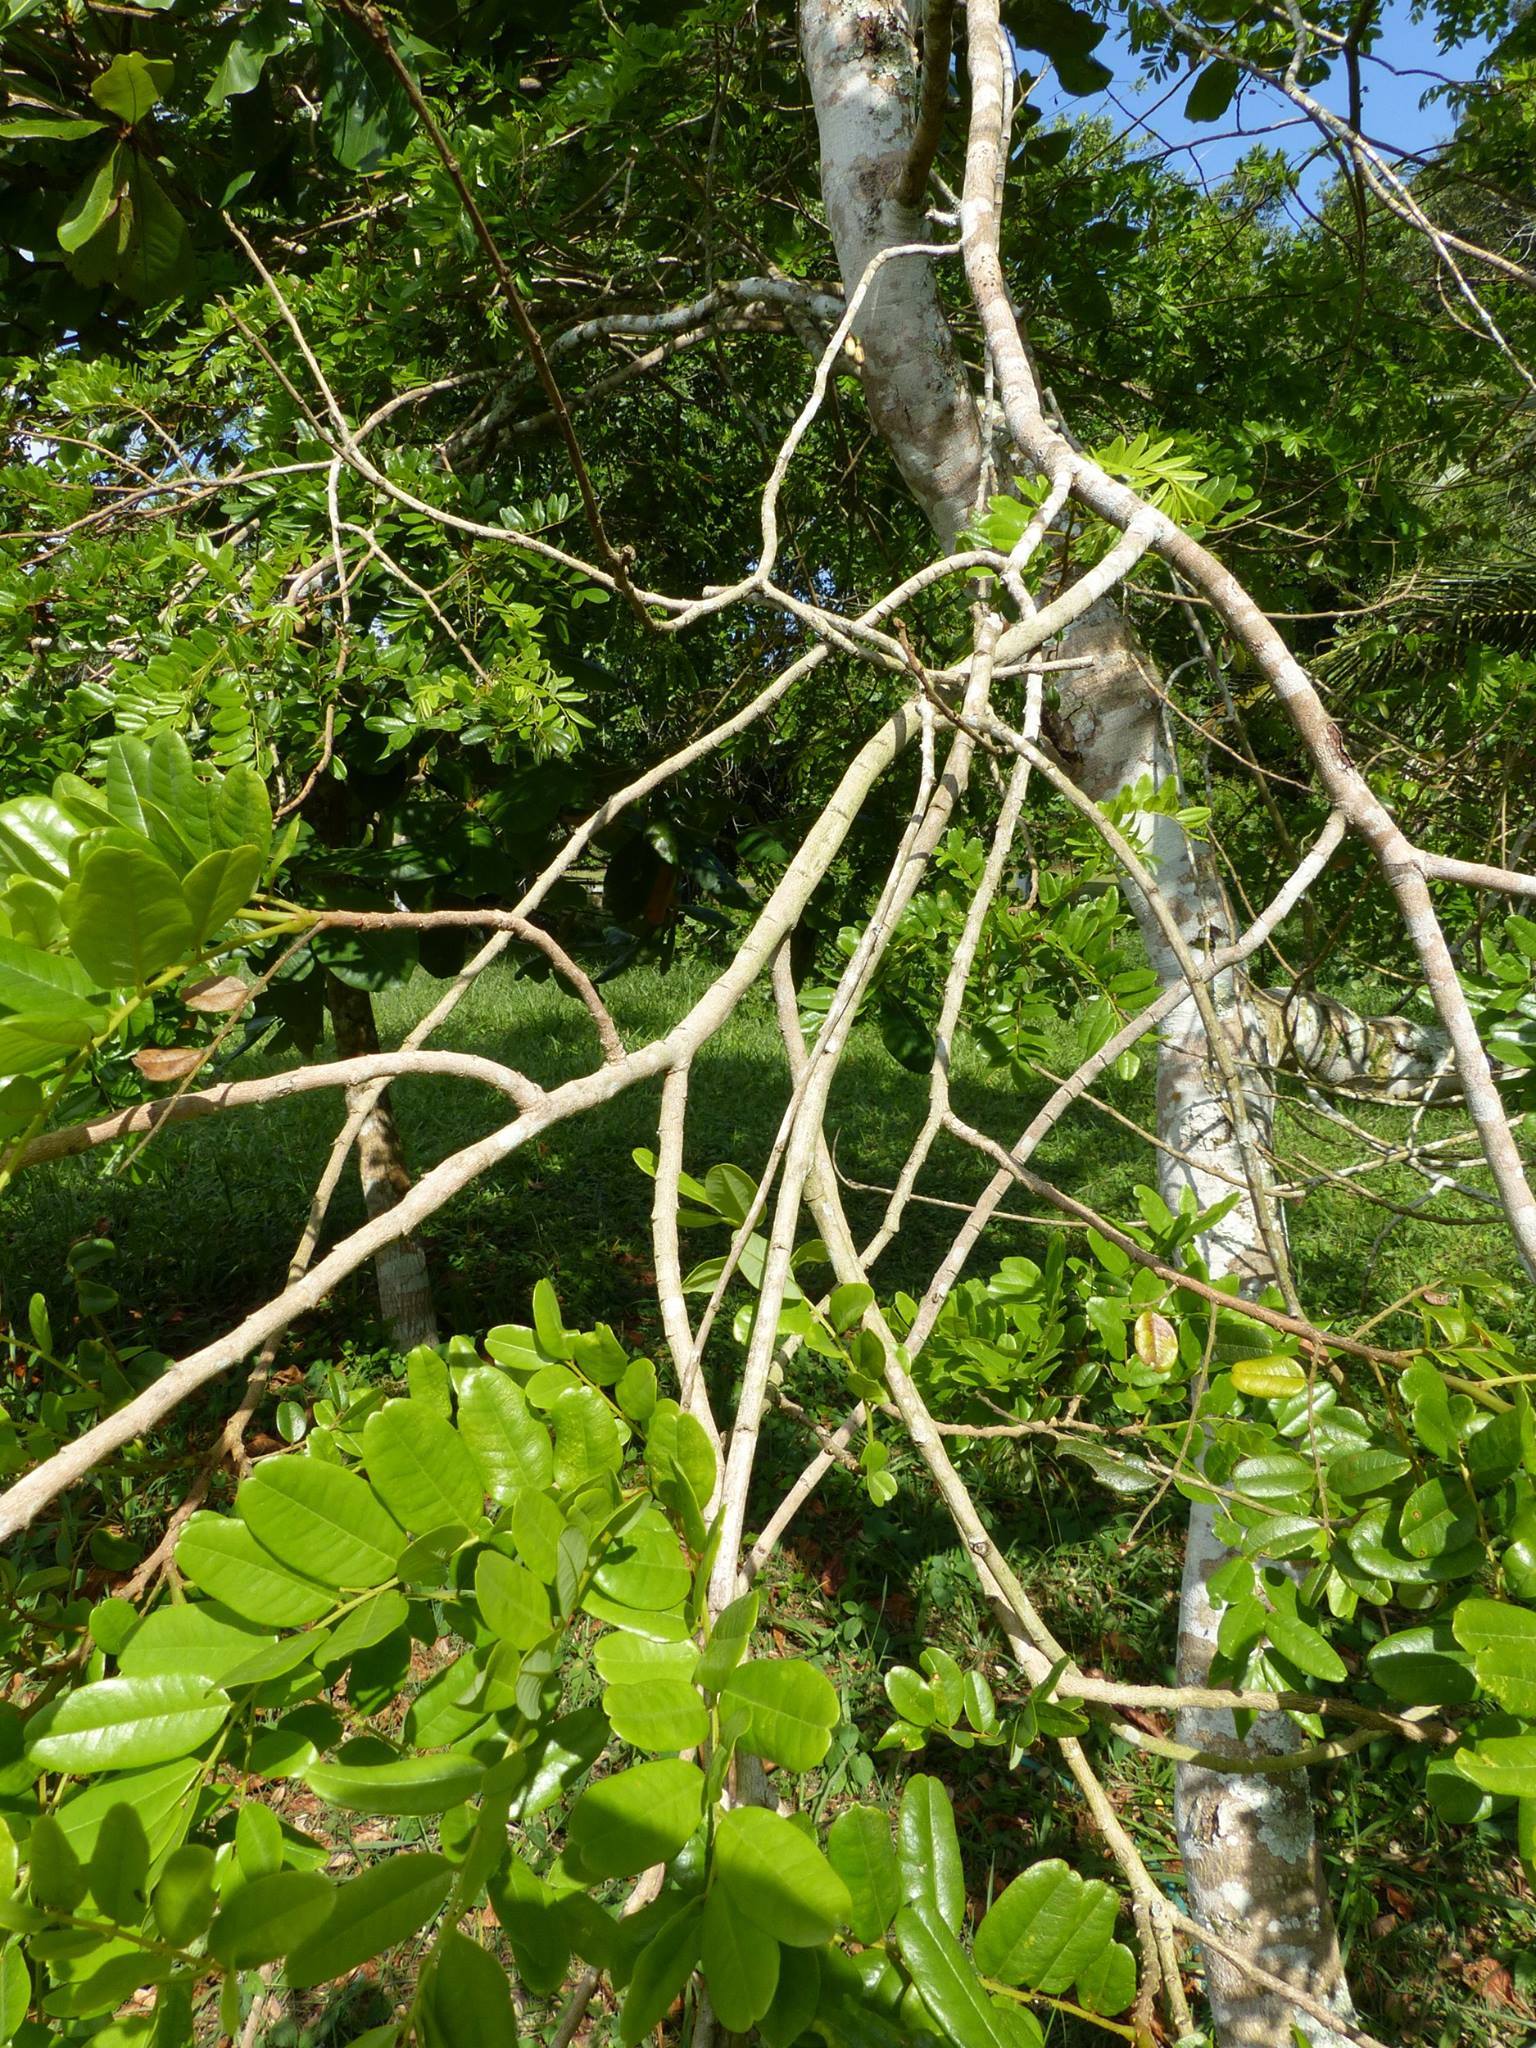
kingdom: Plantae
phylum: Tracheophyta
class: Magnoliopsida
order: Fabales
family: Fabaceae
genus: Bowdichia
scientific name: Bowdichia virgilioides
